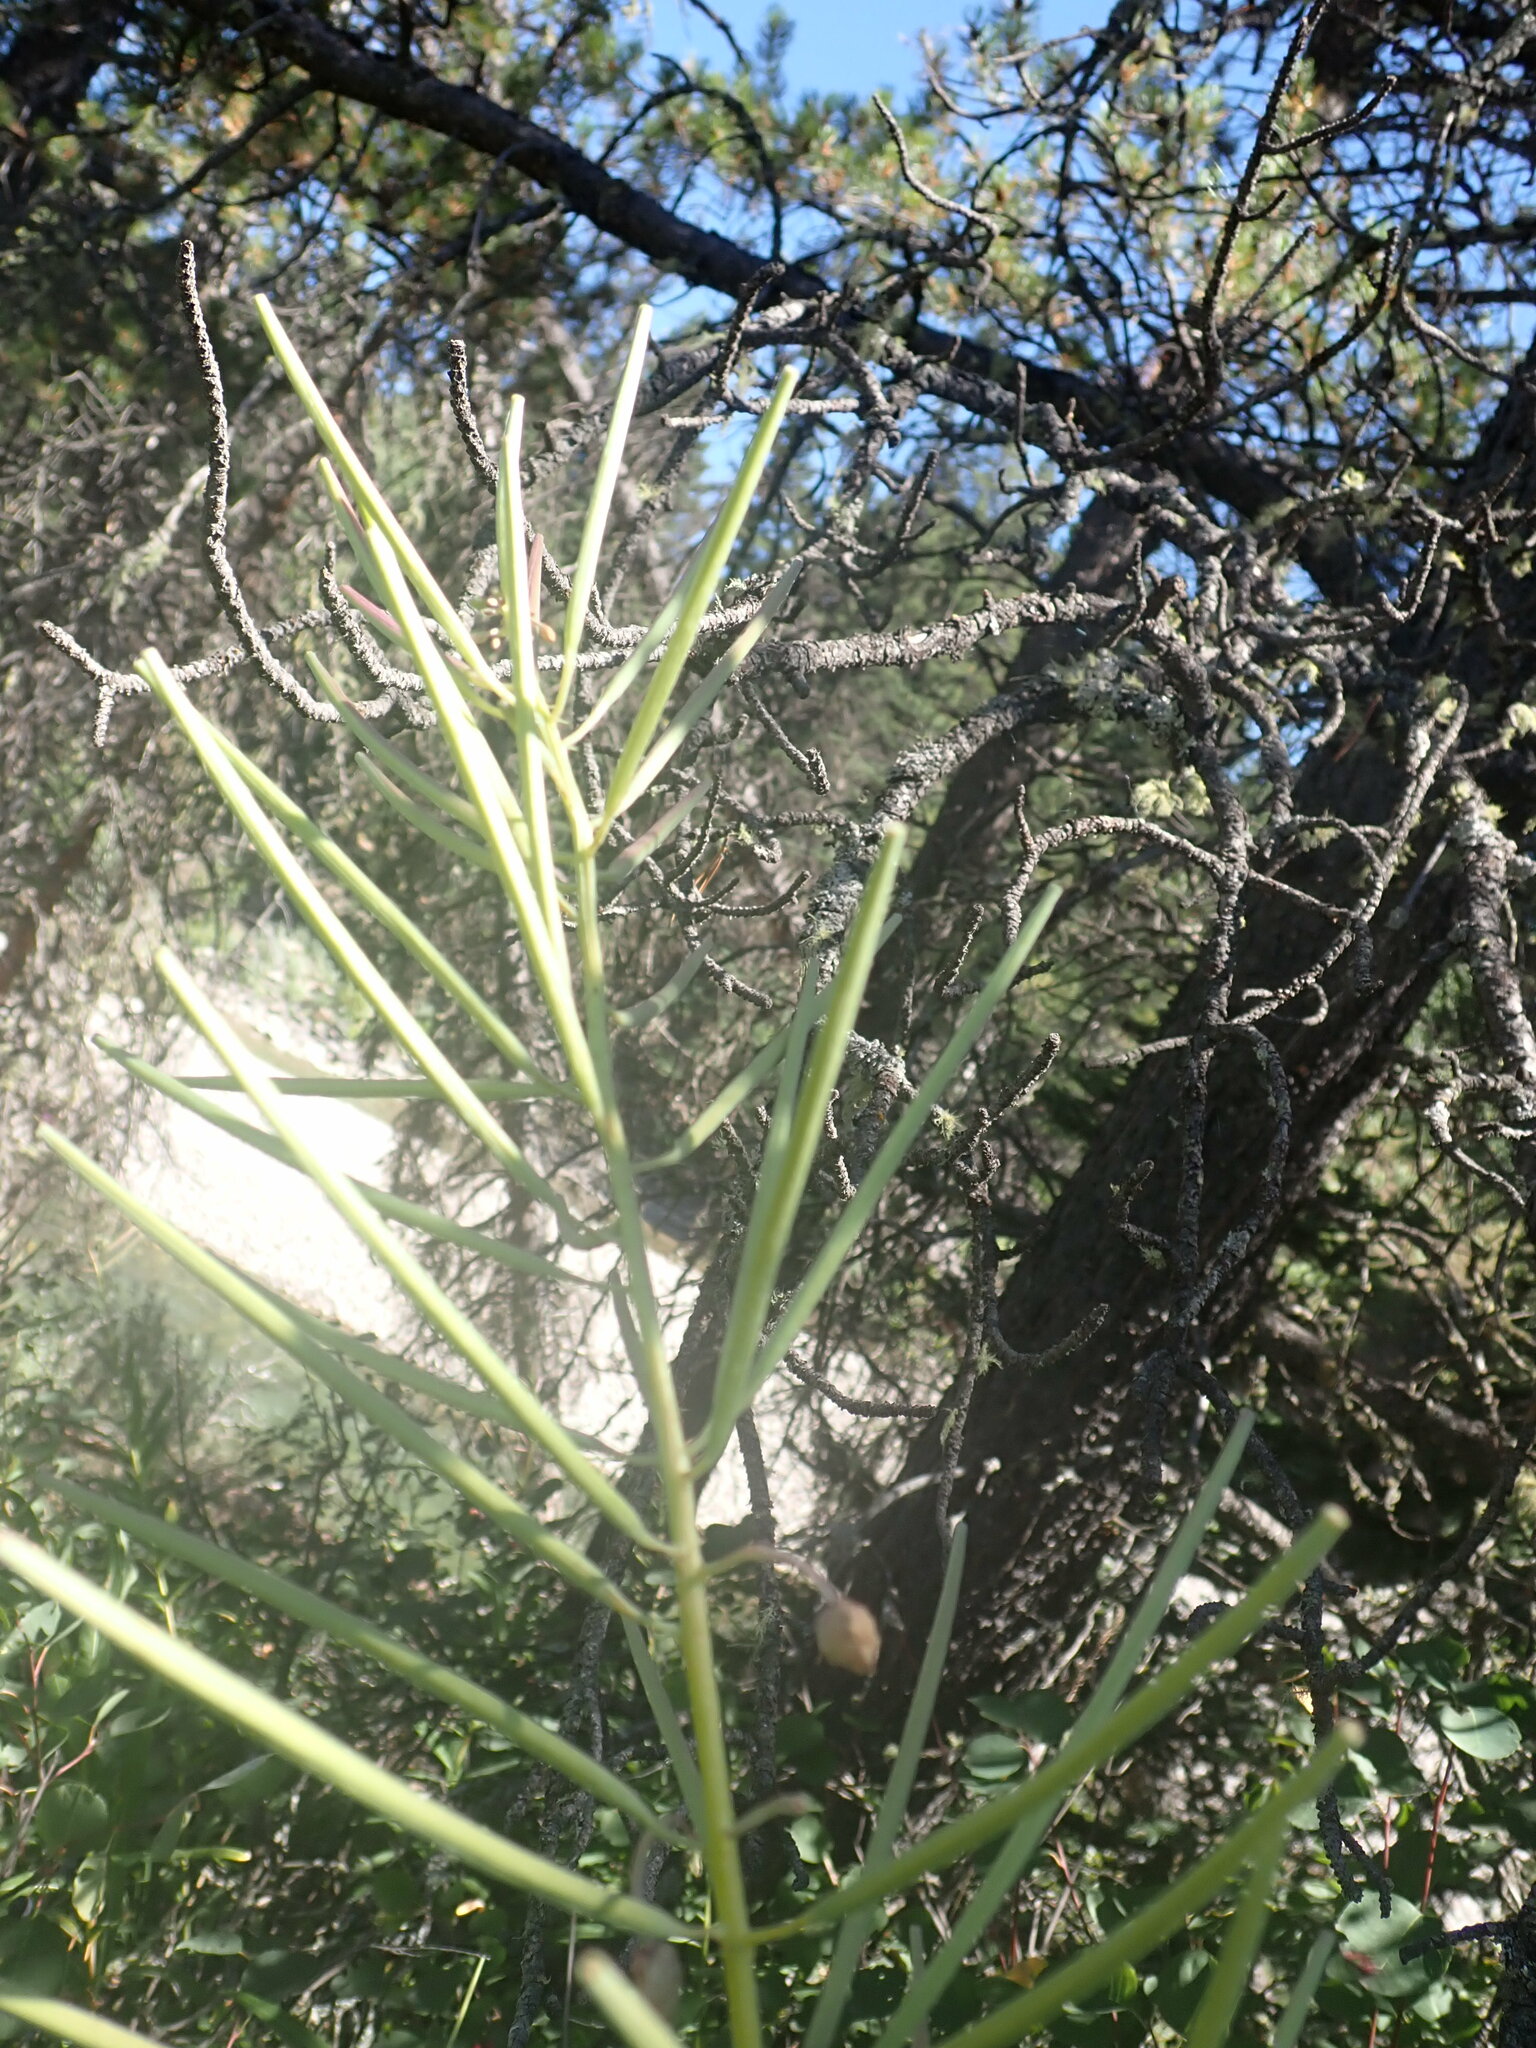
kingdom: Plantae
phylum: Tracheophyta
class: Magnoliopsida
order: Myrtales
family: Onagraceae
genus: Chamaenerion
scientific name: Chamaenerion angustifolium
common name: Fireweed
